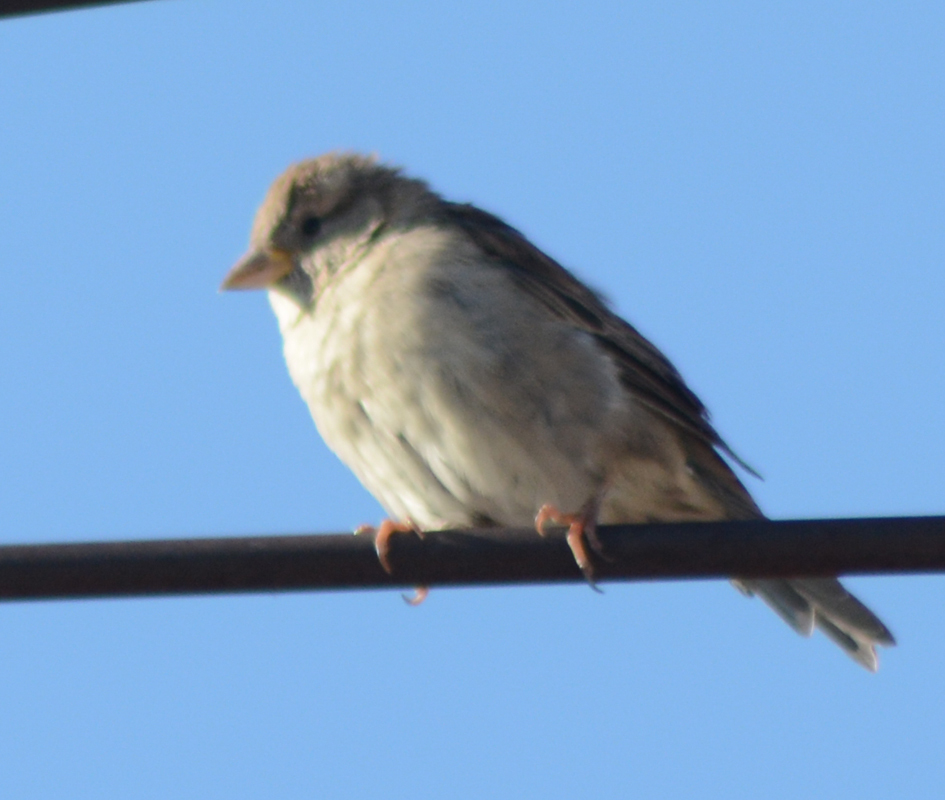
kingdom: Animalia
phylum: Chordata
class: Aves
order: Passeriformes
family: Passeridae
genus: Passer
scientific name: Passer domesticus
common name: House sparrow
